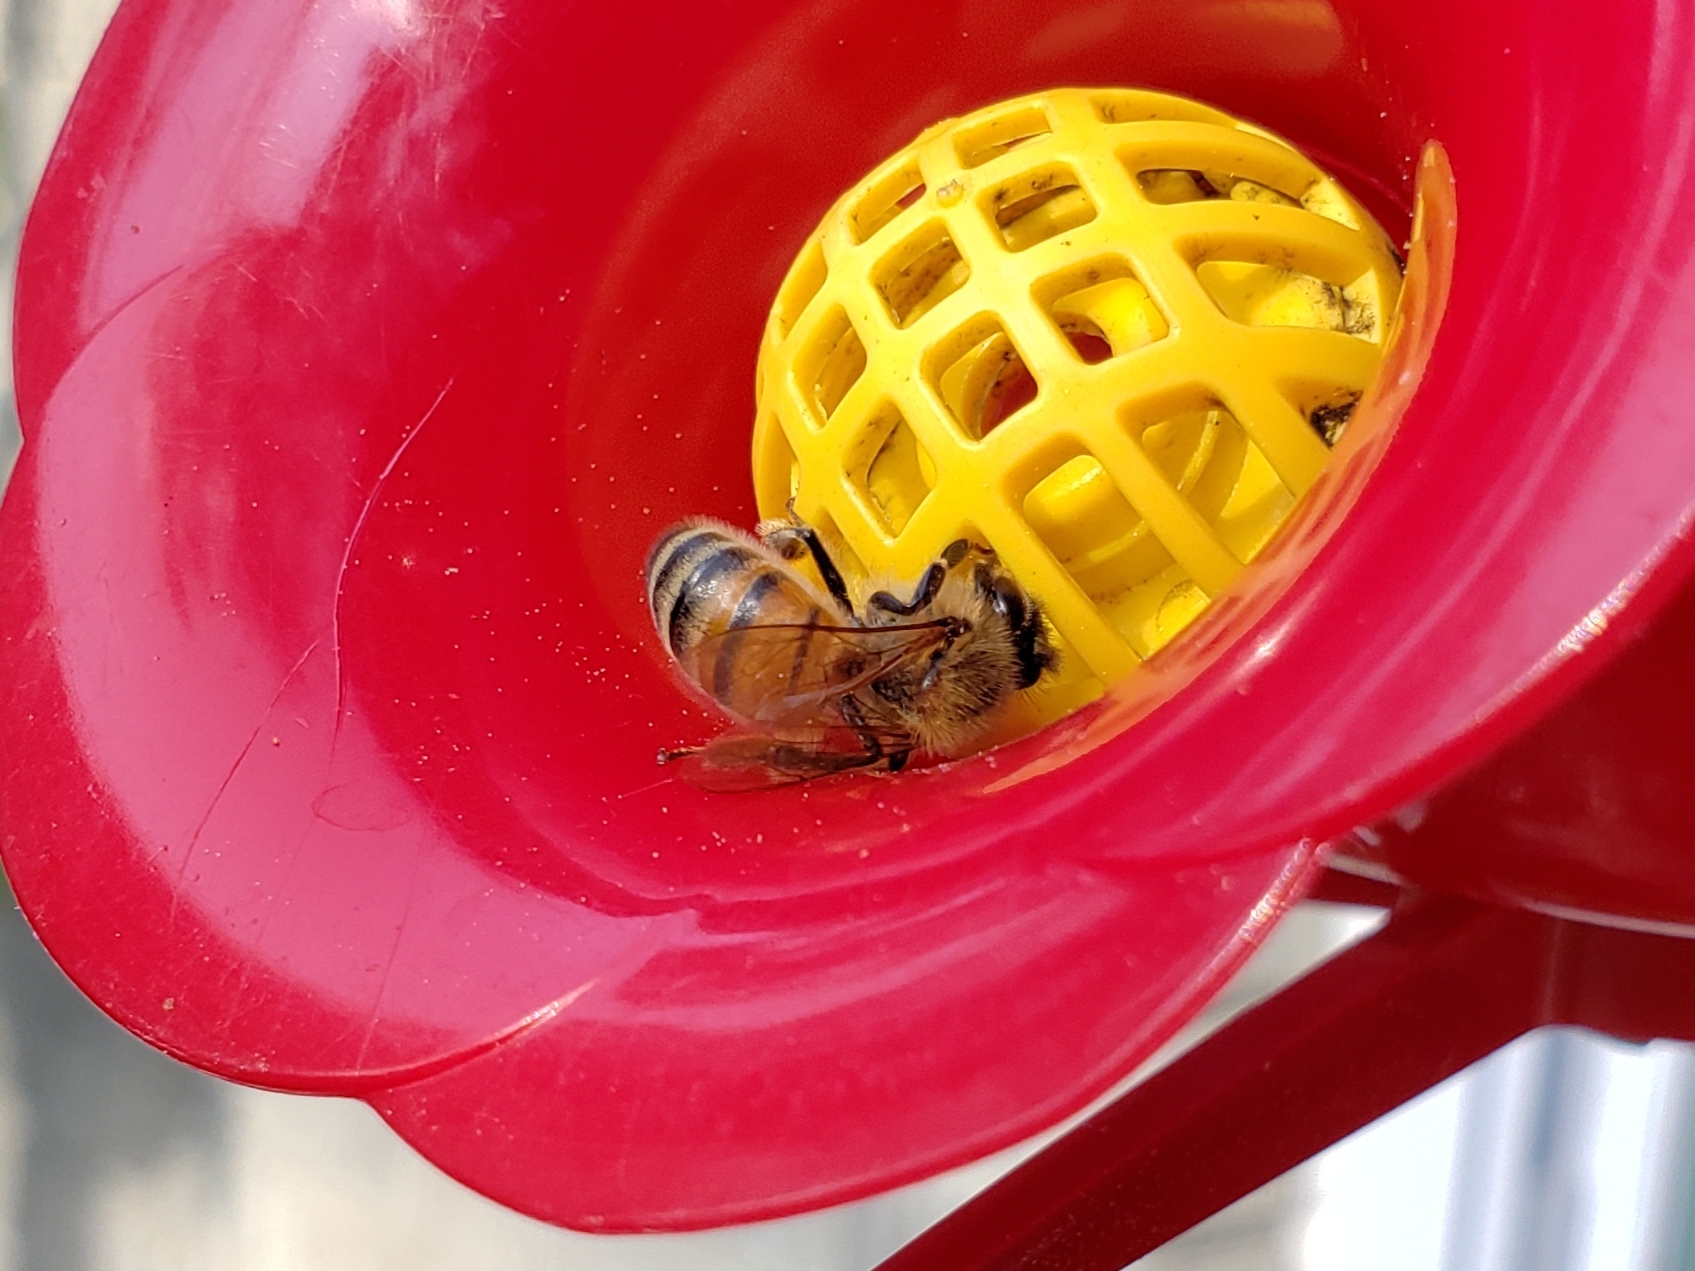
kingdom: Animalia
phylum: Arthropoda
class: Insecta
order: Hymenoptera
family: Apidae
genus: Apis
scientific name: Apis mellifera
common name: Honey bee
